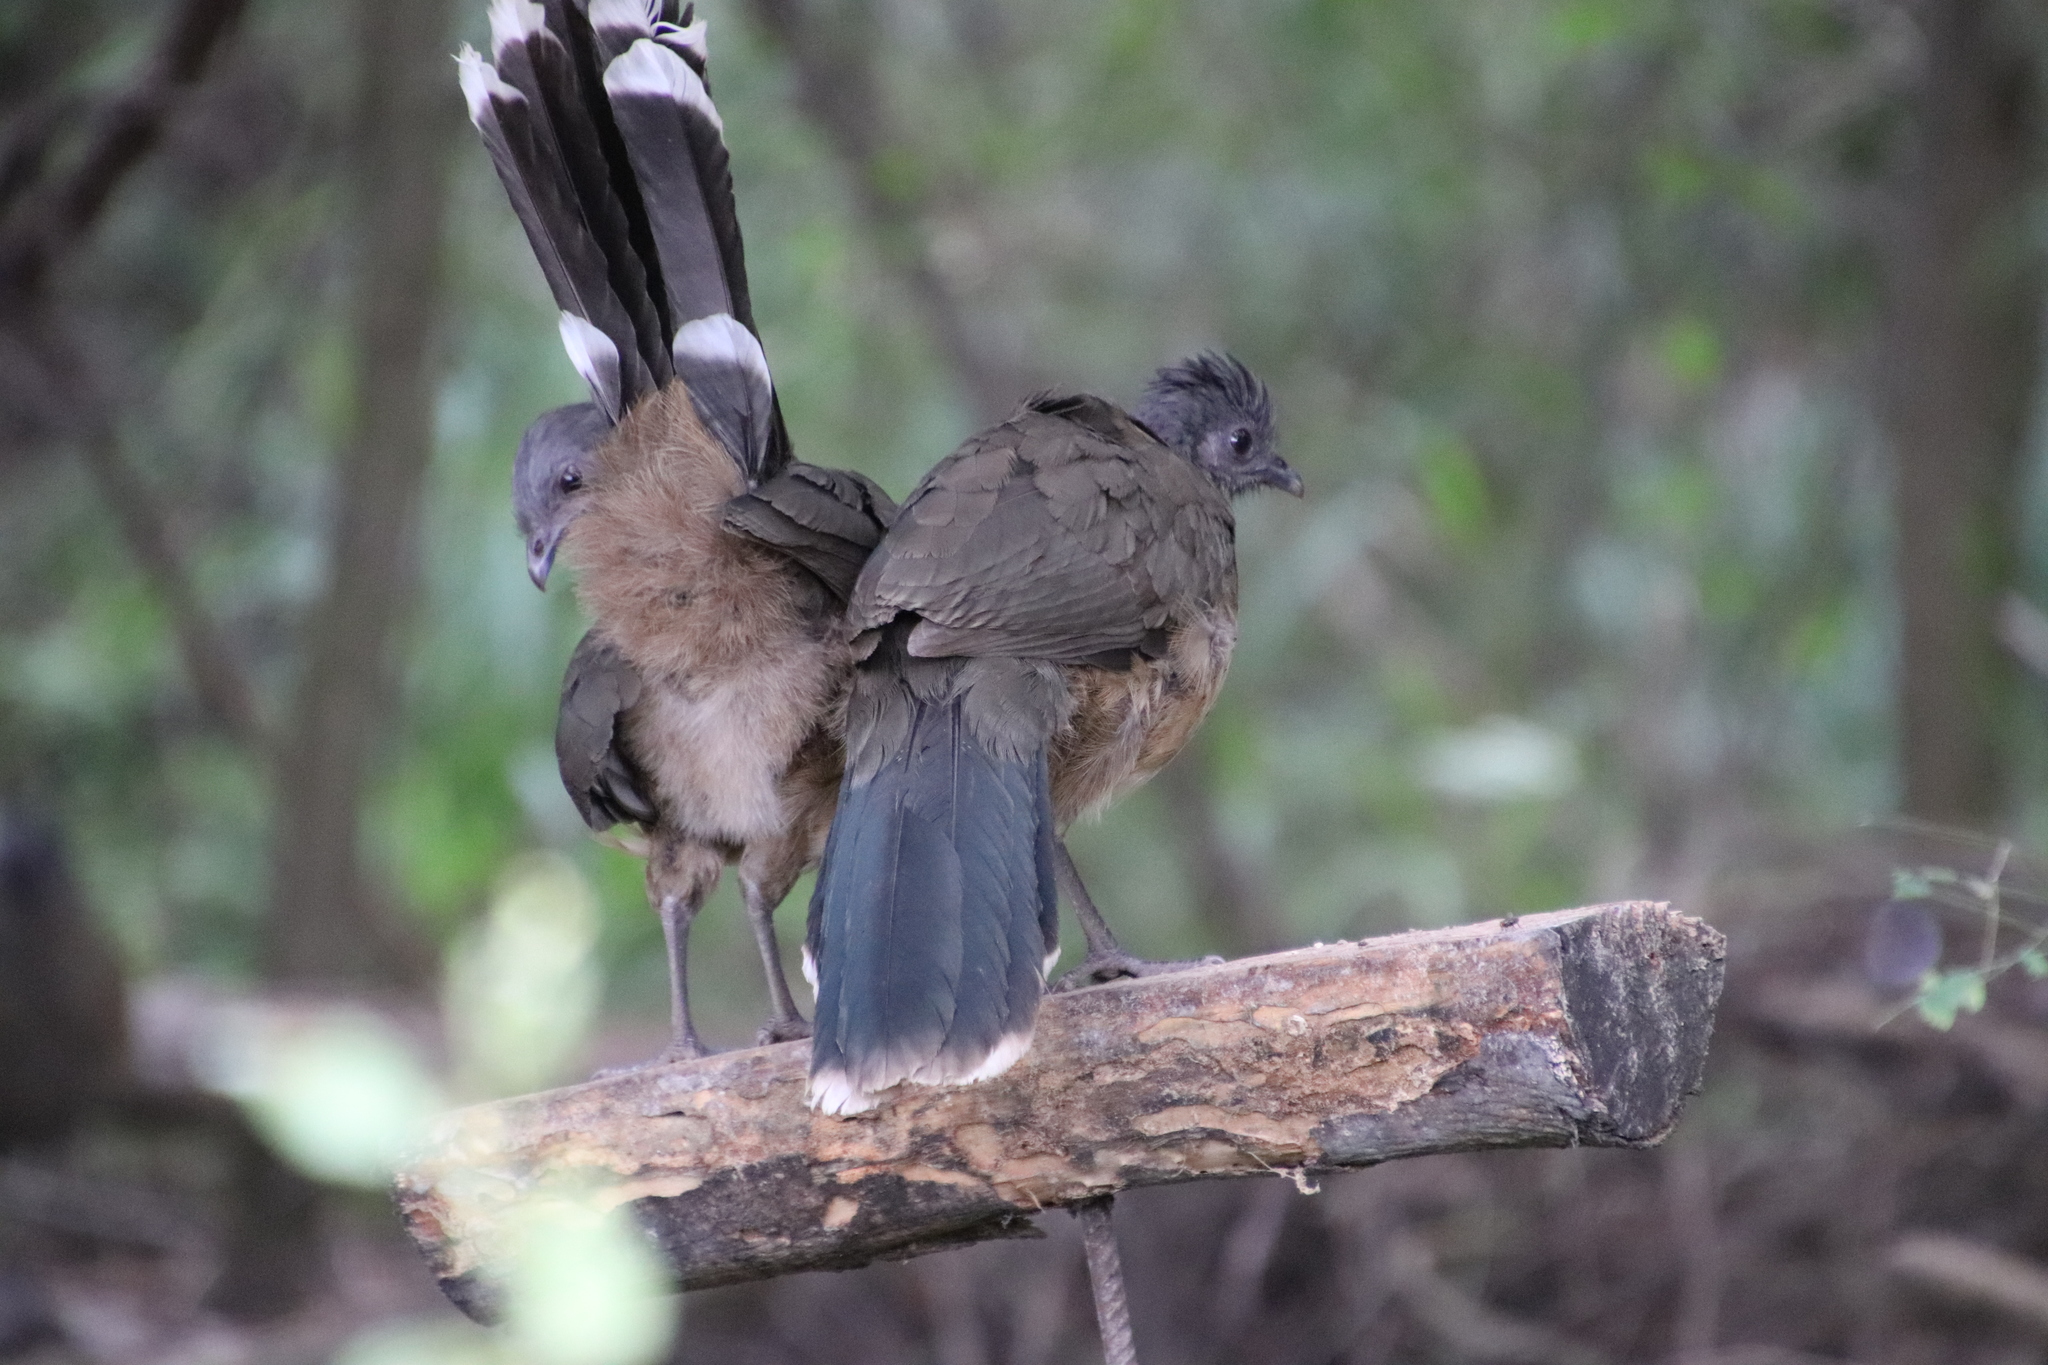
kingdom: Animalia
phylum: Chordata
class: Aves
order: Galliformes
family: Cracidae
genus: Ortalis
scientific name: Ortalis vetula
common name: Plain chachalaca
